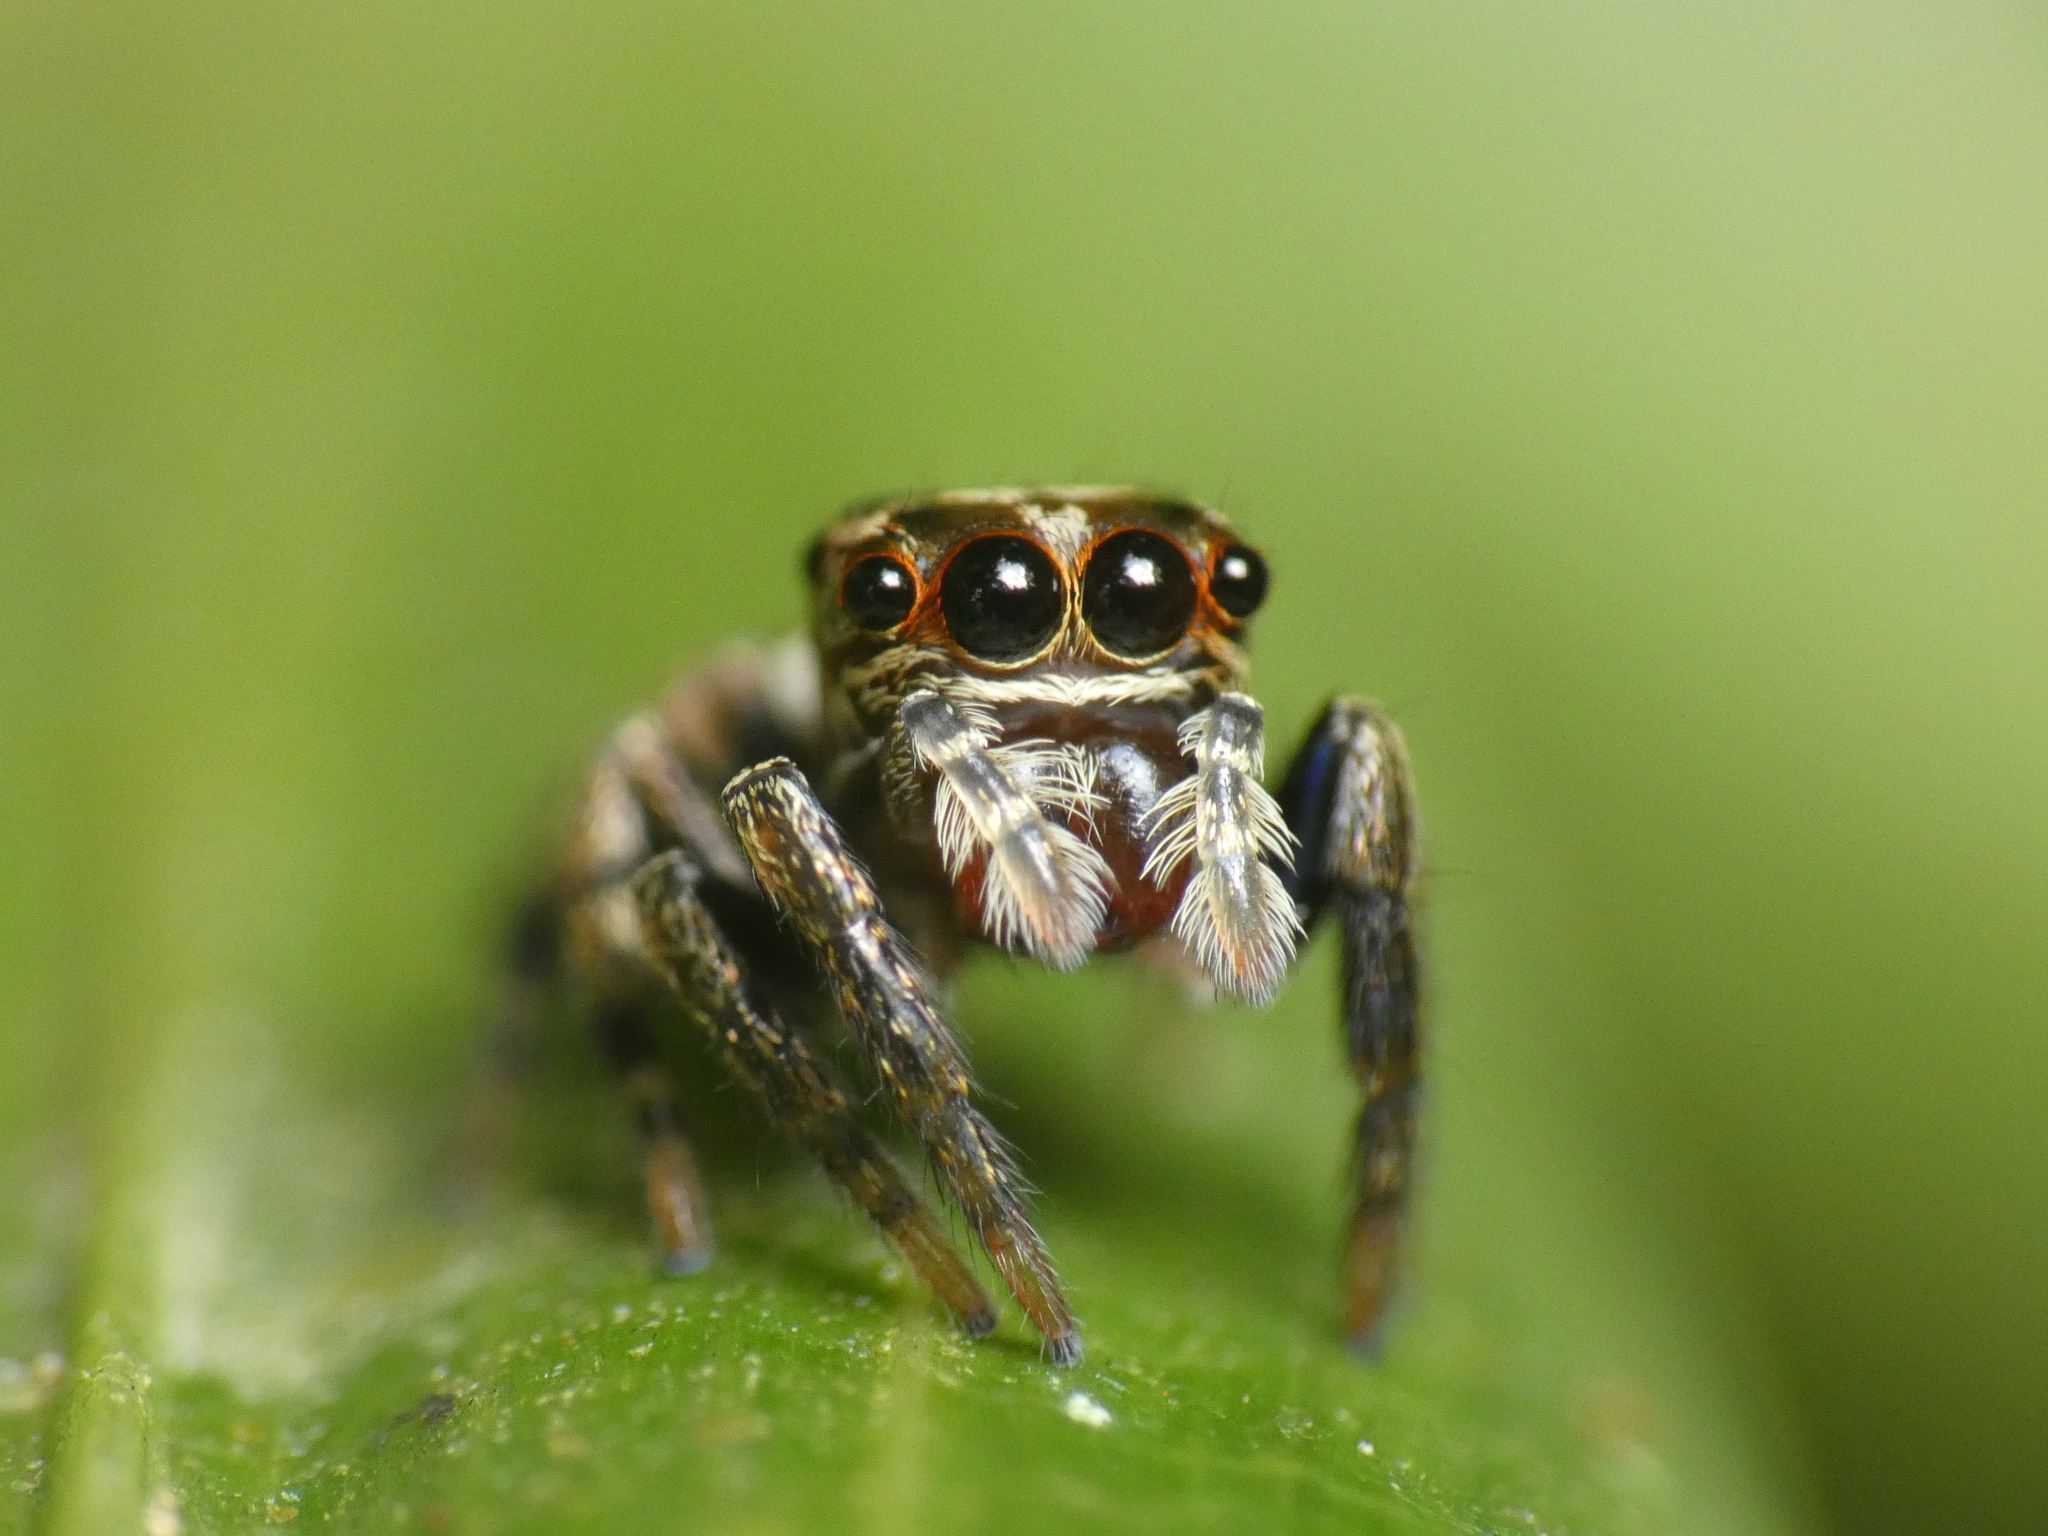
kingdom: Animalia
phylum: Arthropoda
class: Arachnida
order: Araneae
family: Salticidae
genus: Euryattus
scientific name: Euryattus bleekeri
